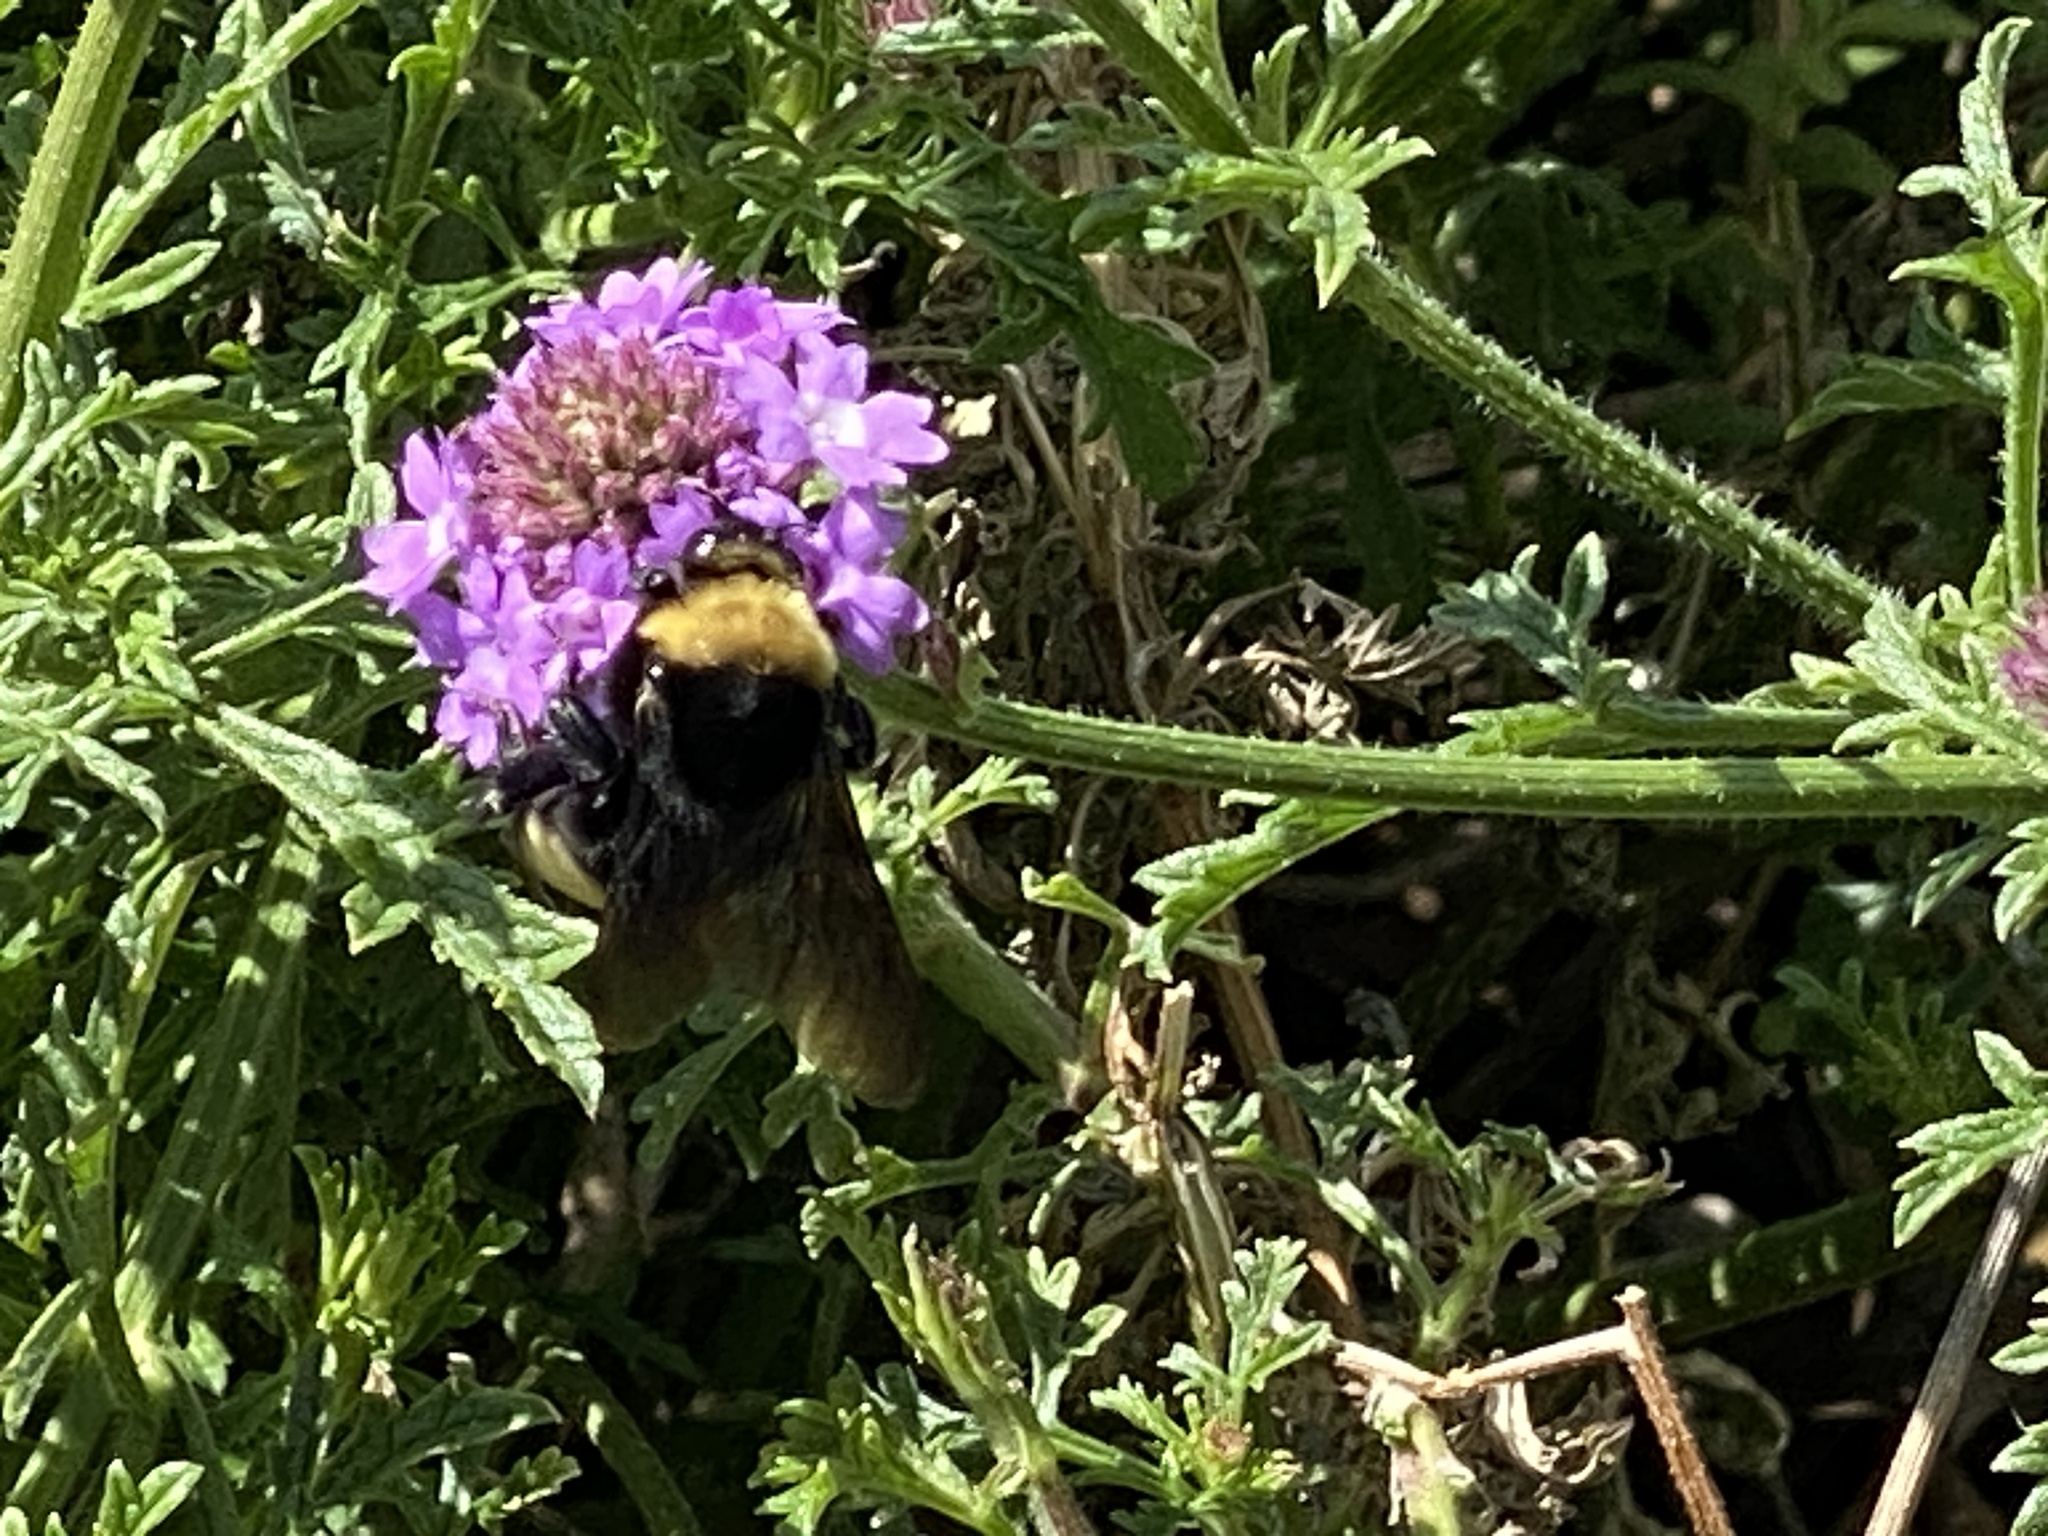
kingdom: Animalia
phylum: Arthropoda
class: Insecta
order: Hymenoptera
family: Apidae
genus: Bombus
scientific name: Bombus crotchii
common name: Crotch bumble bee
